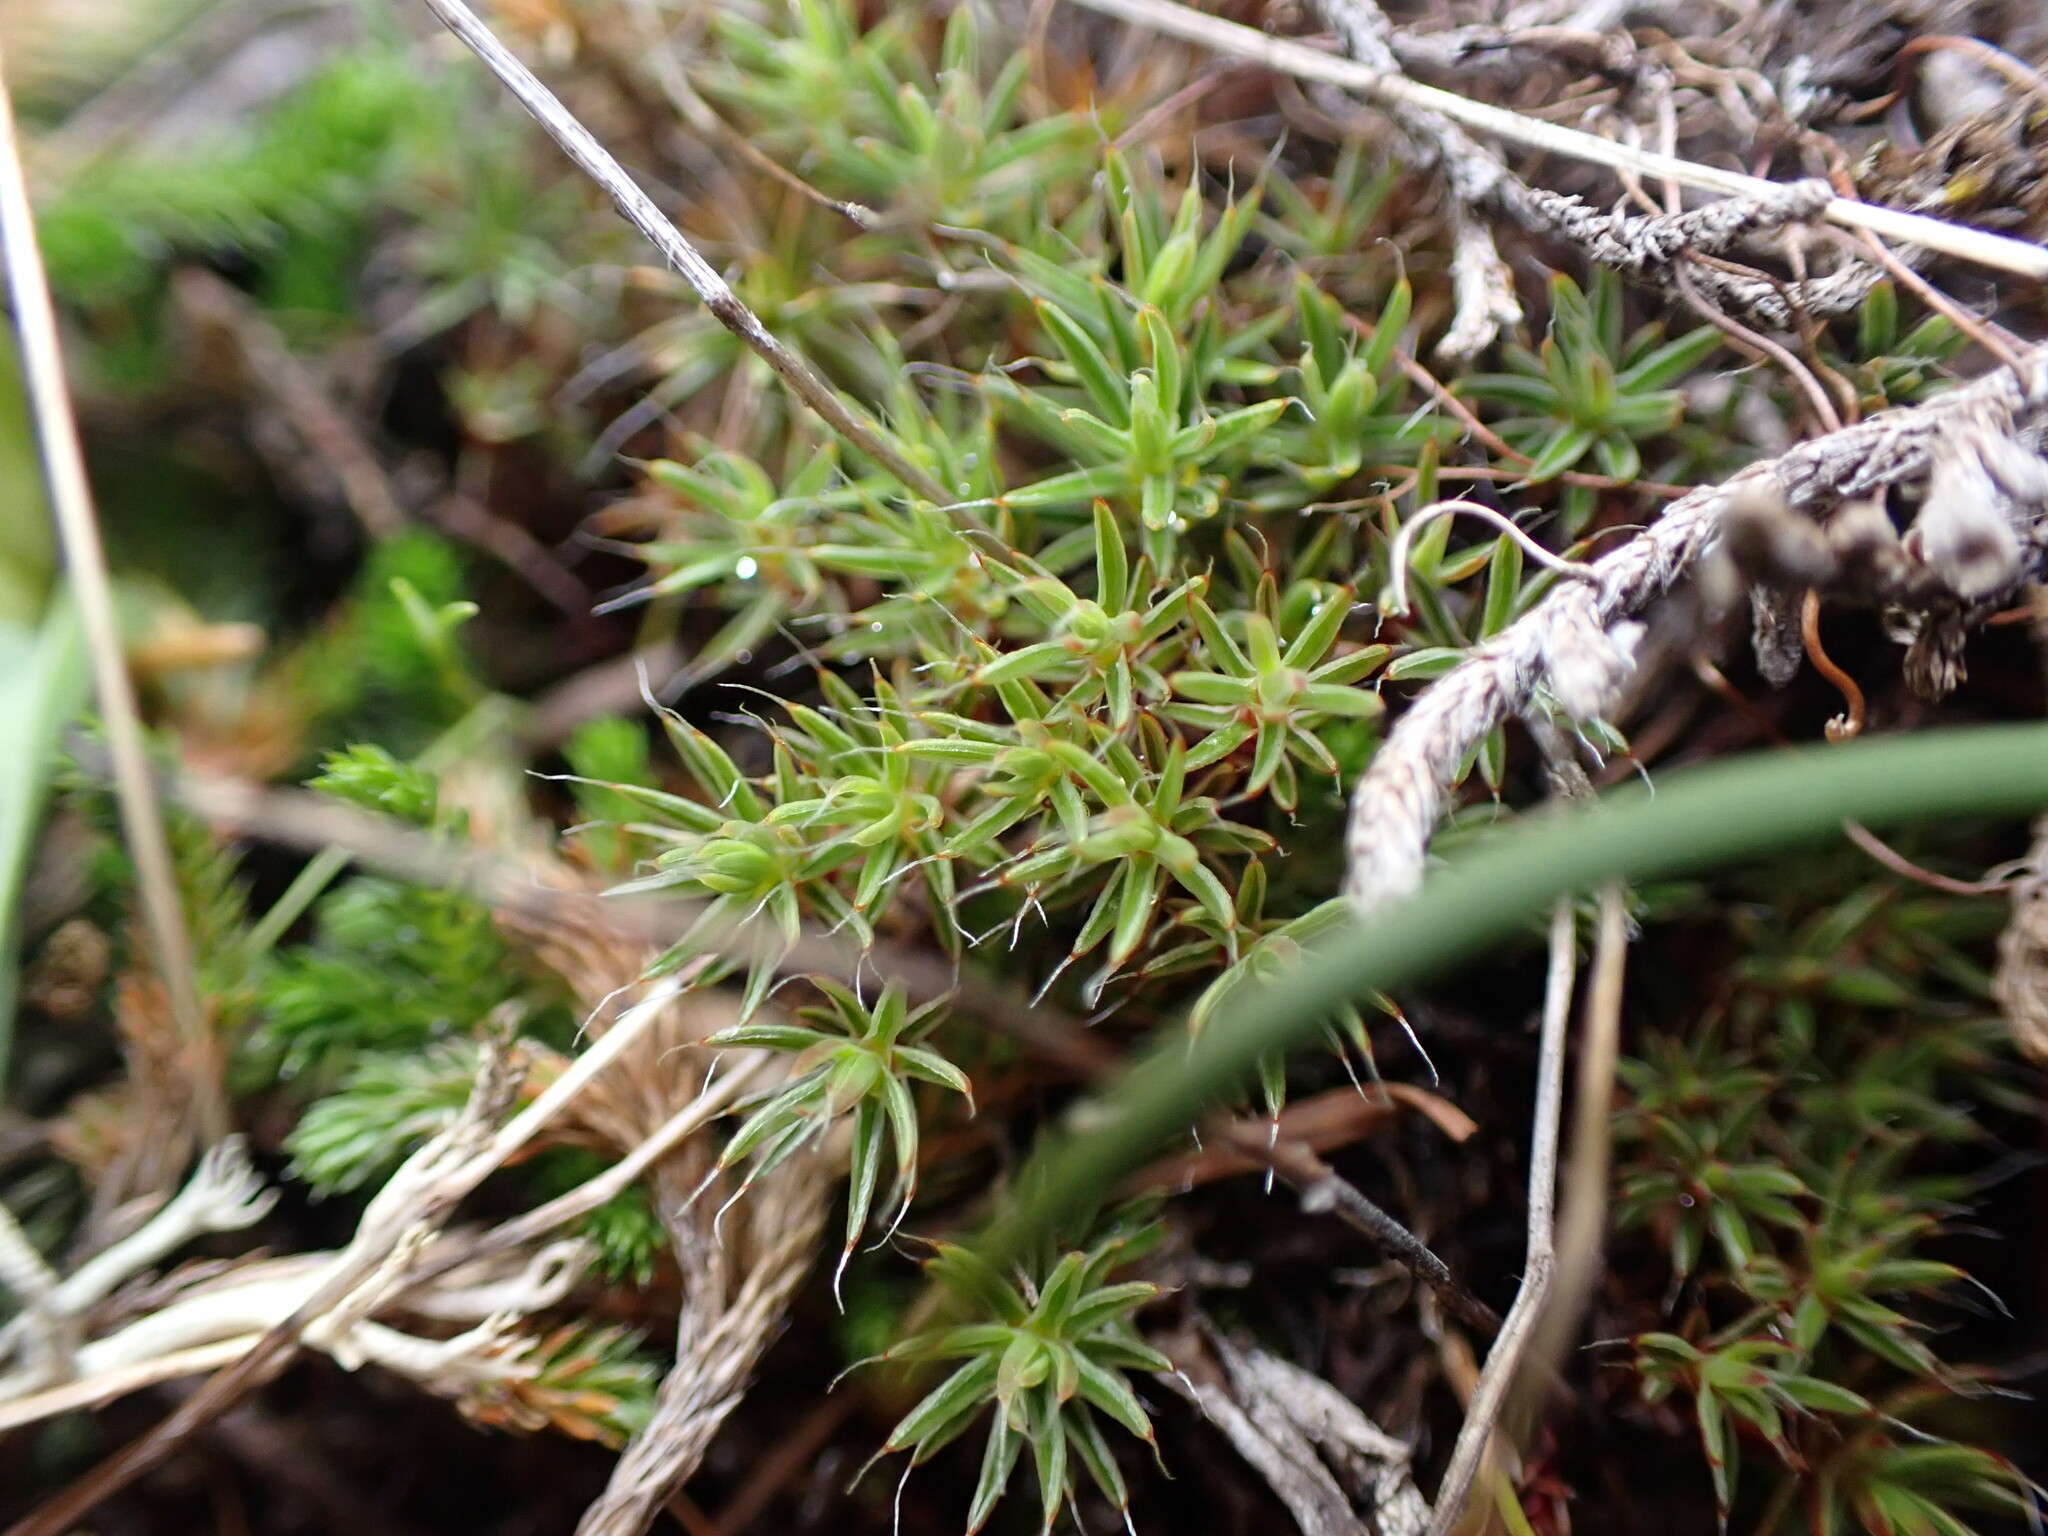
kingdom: Plantae
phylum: Bryophyta
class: Polytrichopsida
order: Polytrichales
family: Polytrichaceae
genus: Polytrichum
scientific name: Polytrichum piliferum
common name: Bristly haircap
